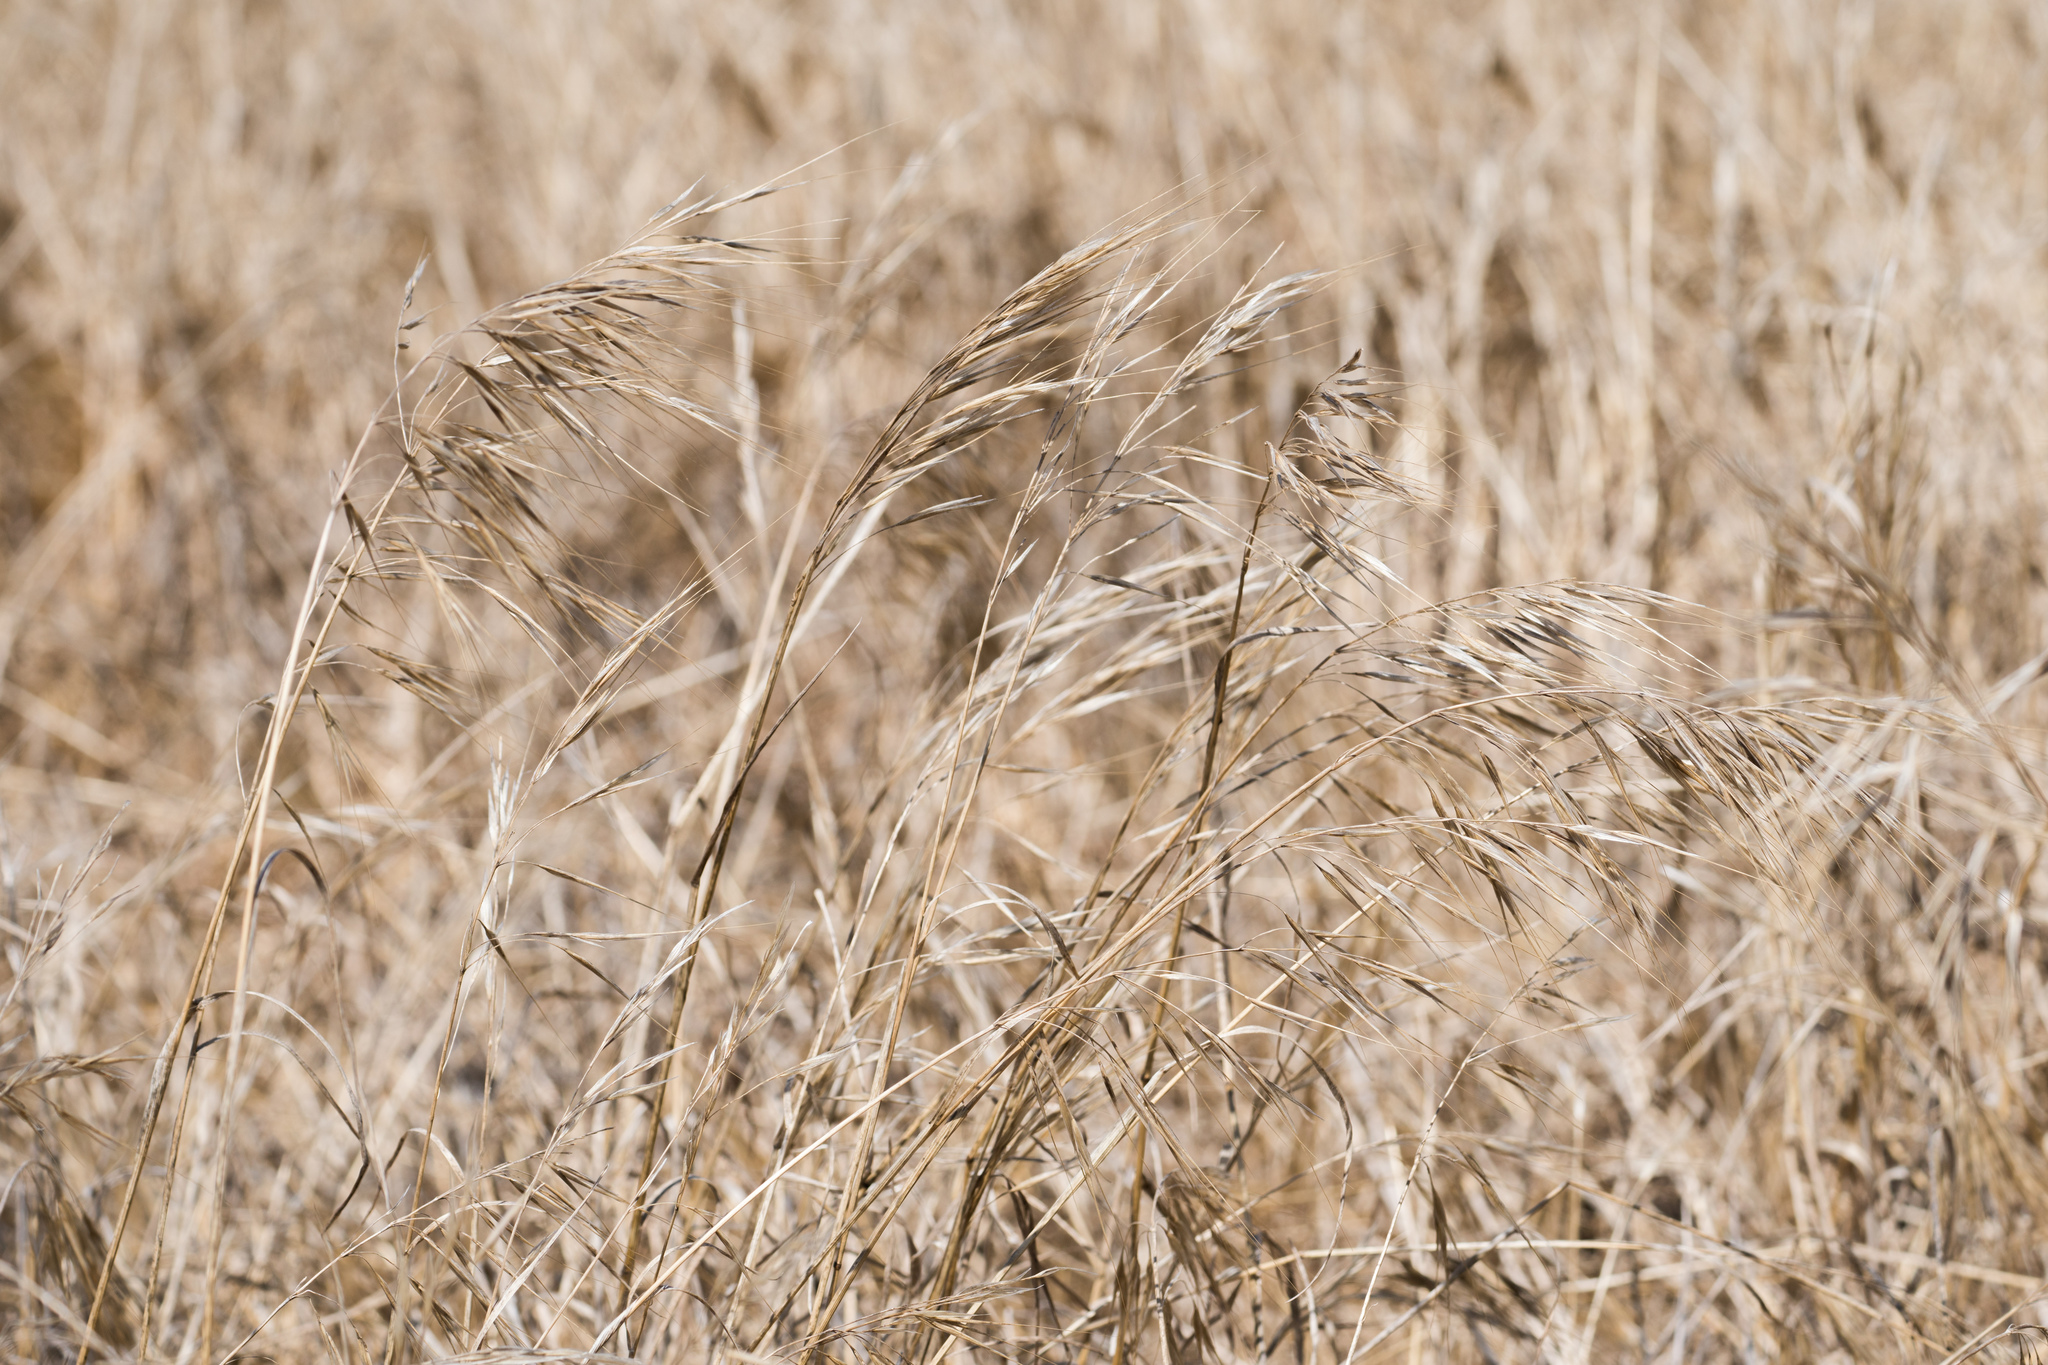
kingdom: Plantae
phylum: Tracheophyta
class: Liliopsida
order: Poales
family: Poaceae
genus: Bromus
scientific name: Bromus diandrus
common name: Ripgut brome
